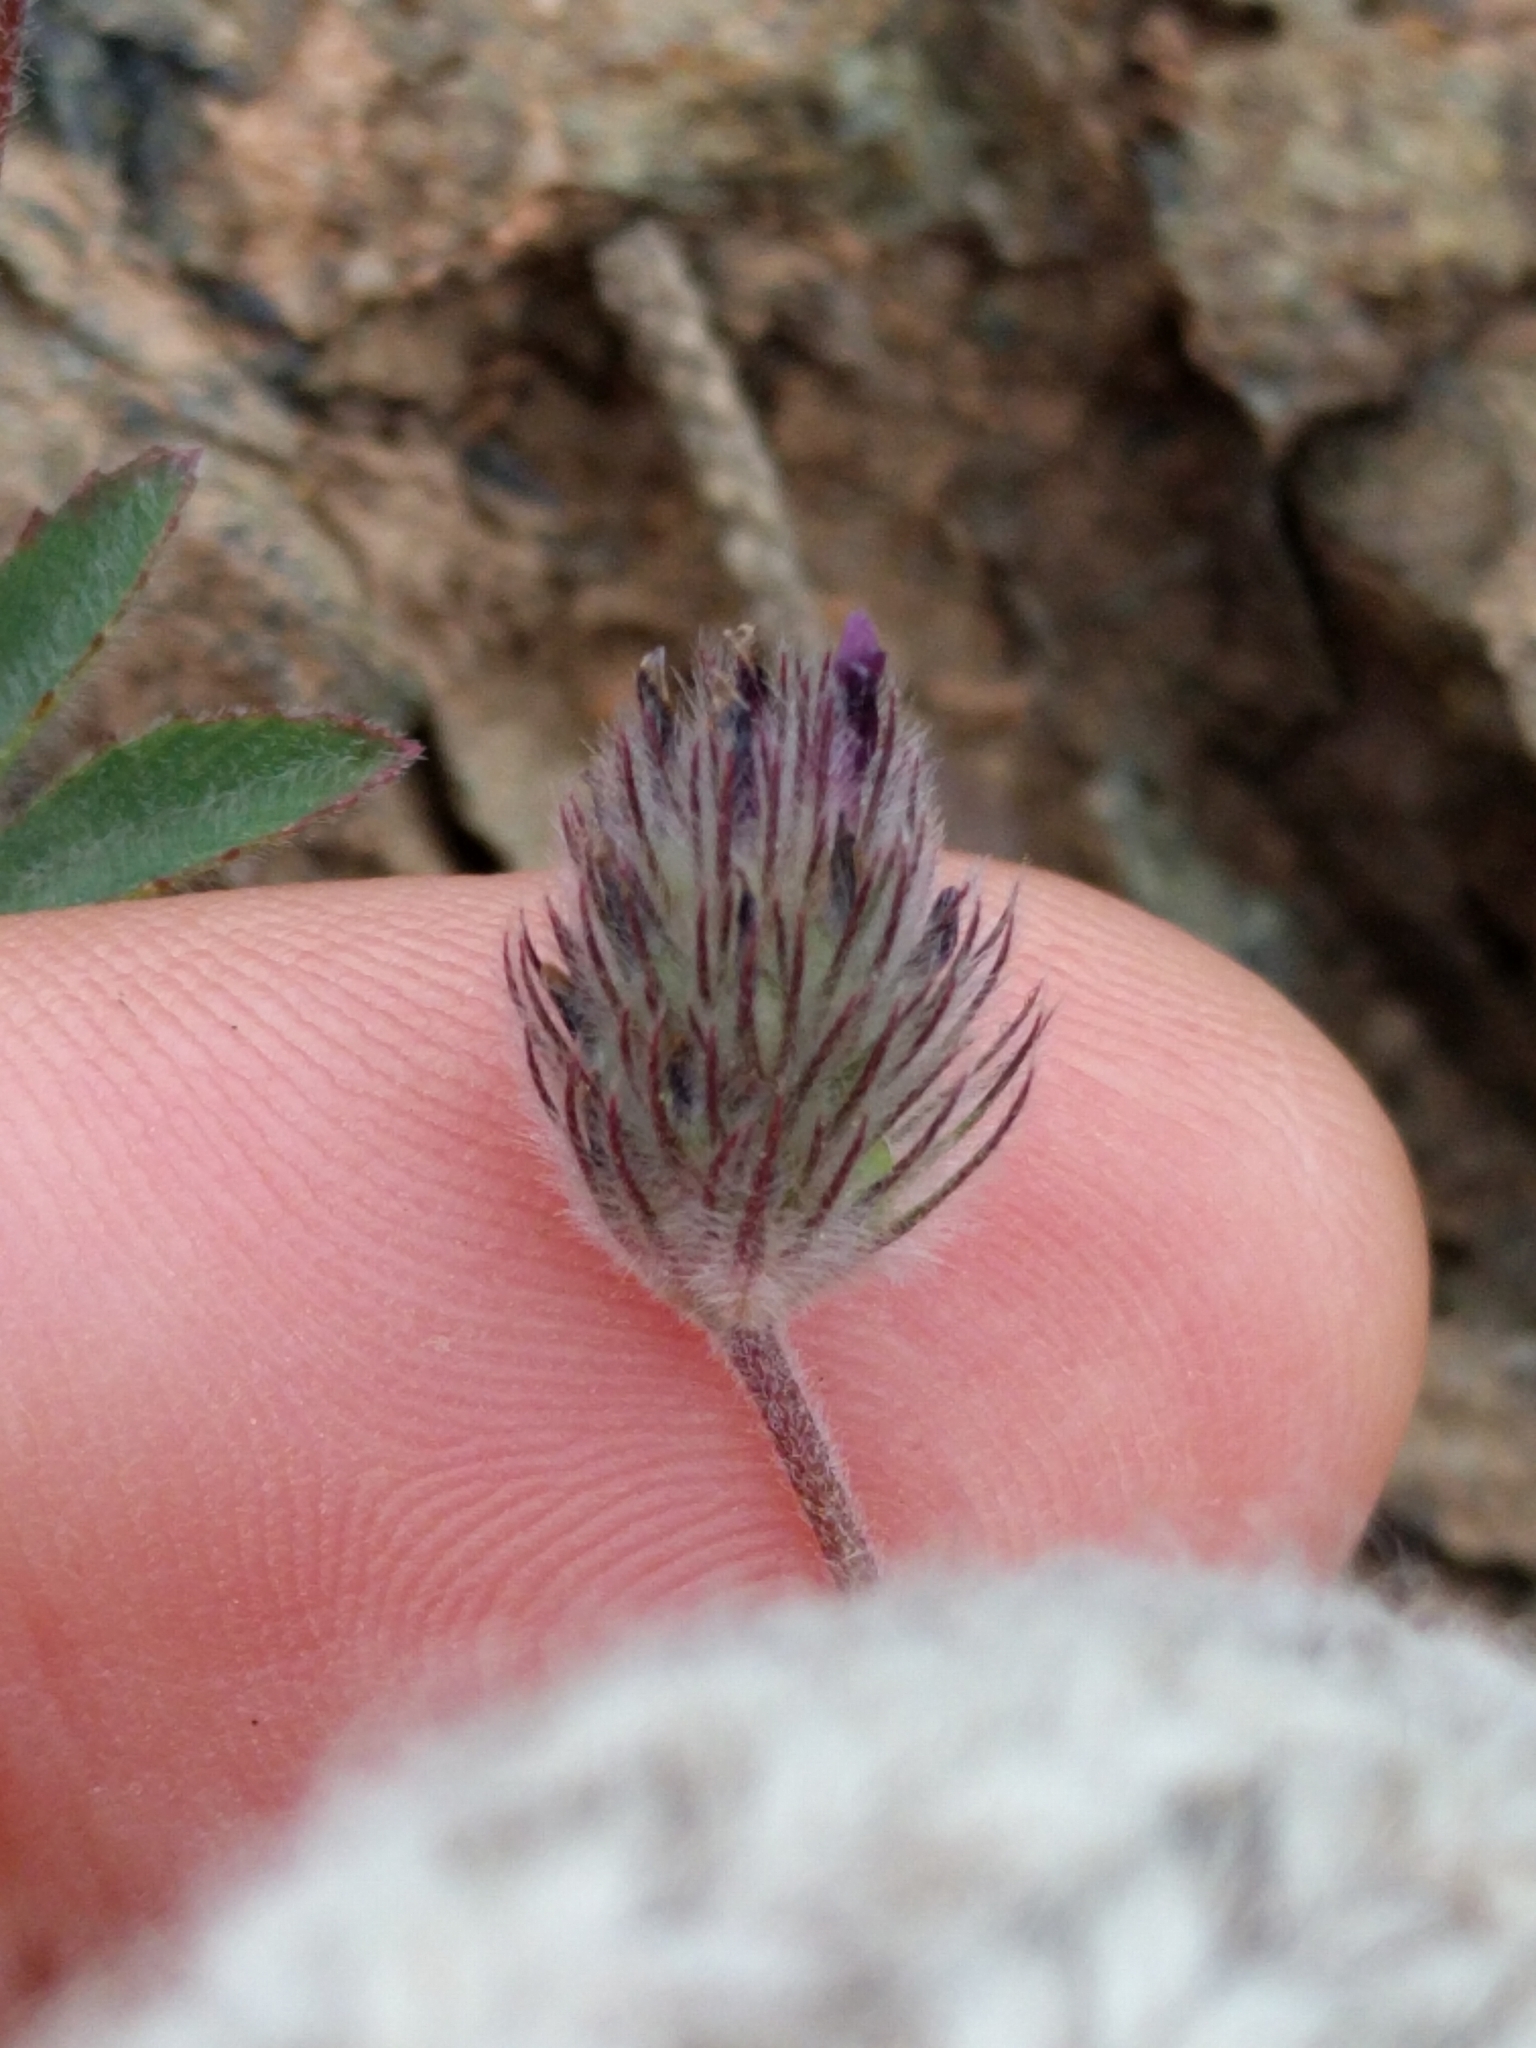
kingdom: Plantae
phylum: Tracheophyta
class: Magnoliopsida
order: Fabales
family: Fabaceae
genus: Trifolium
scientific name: Trifolium albopurpureum
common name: Rancheria clover
